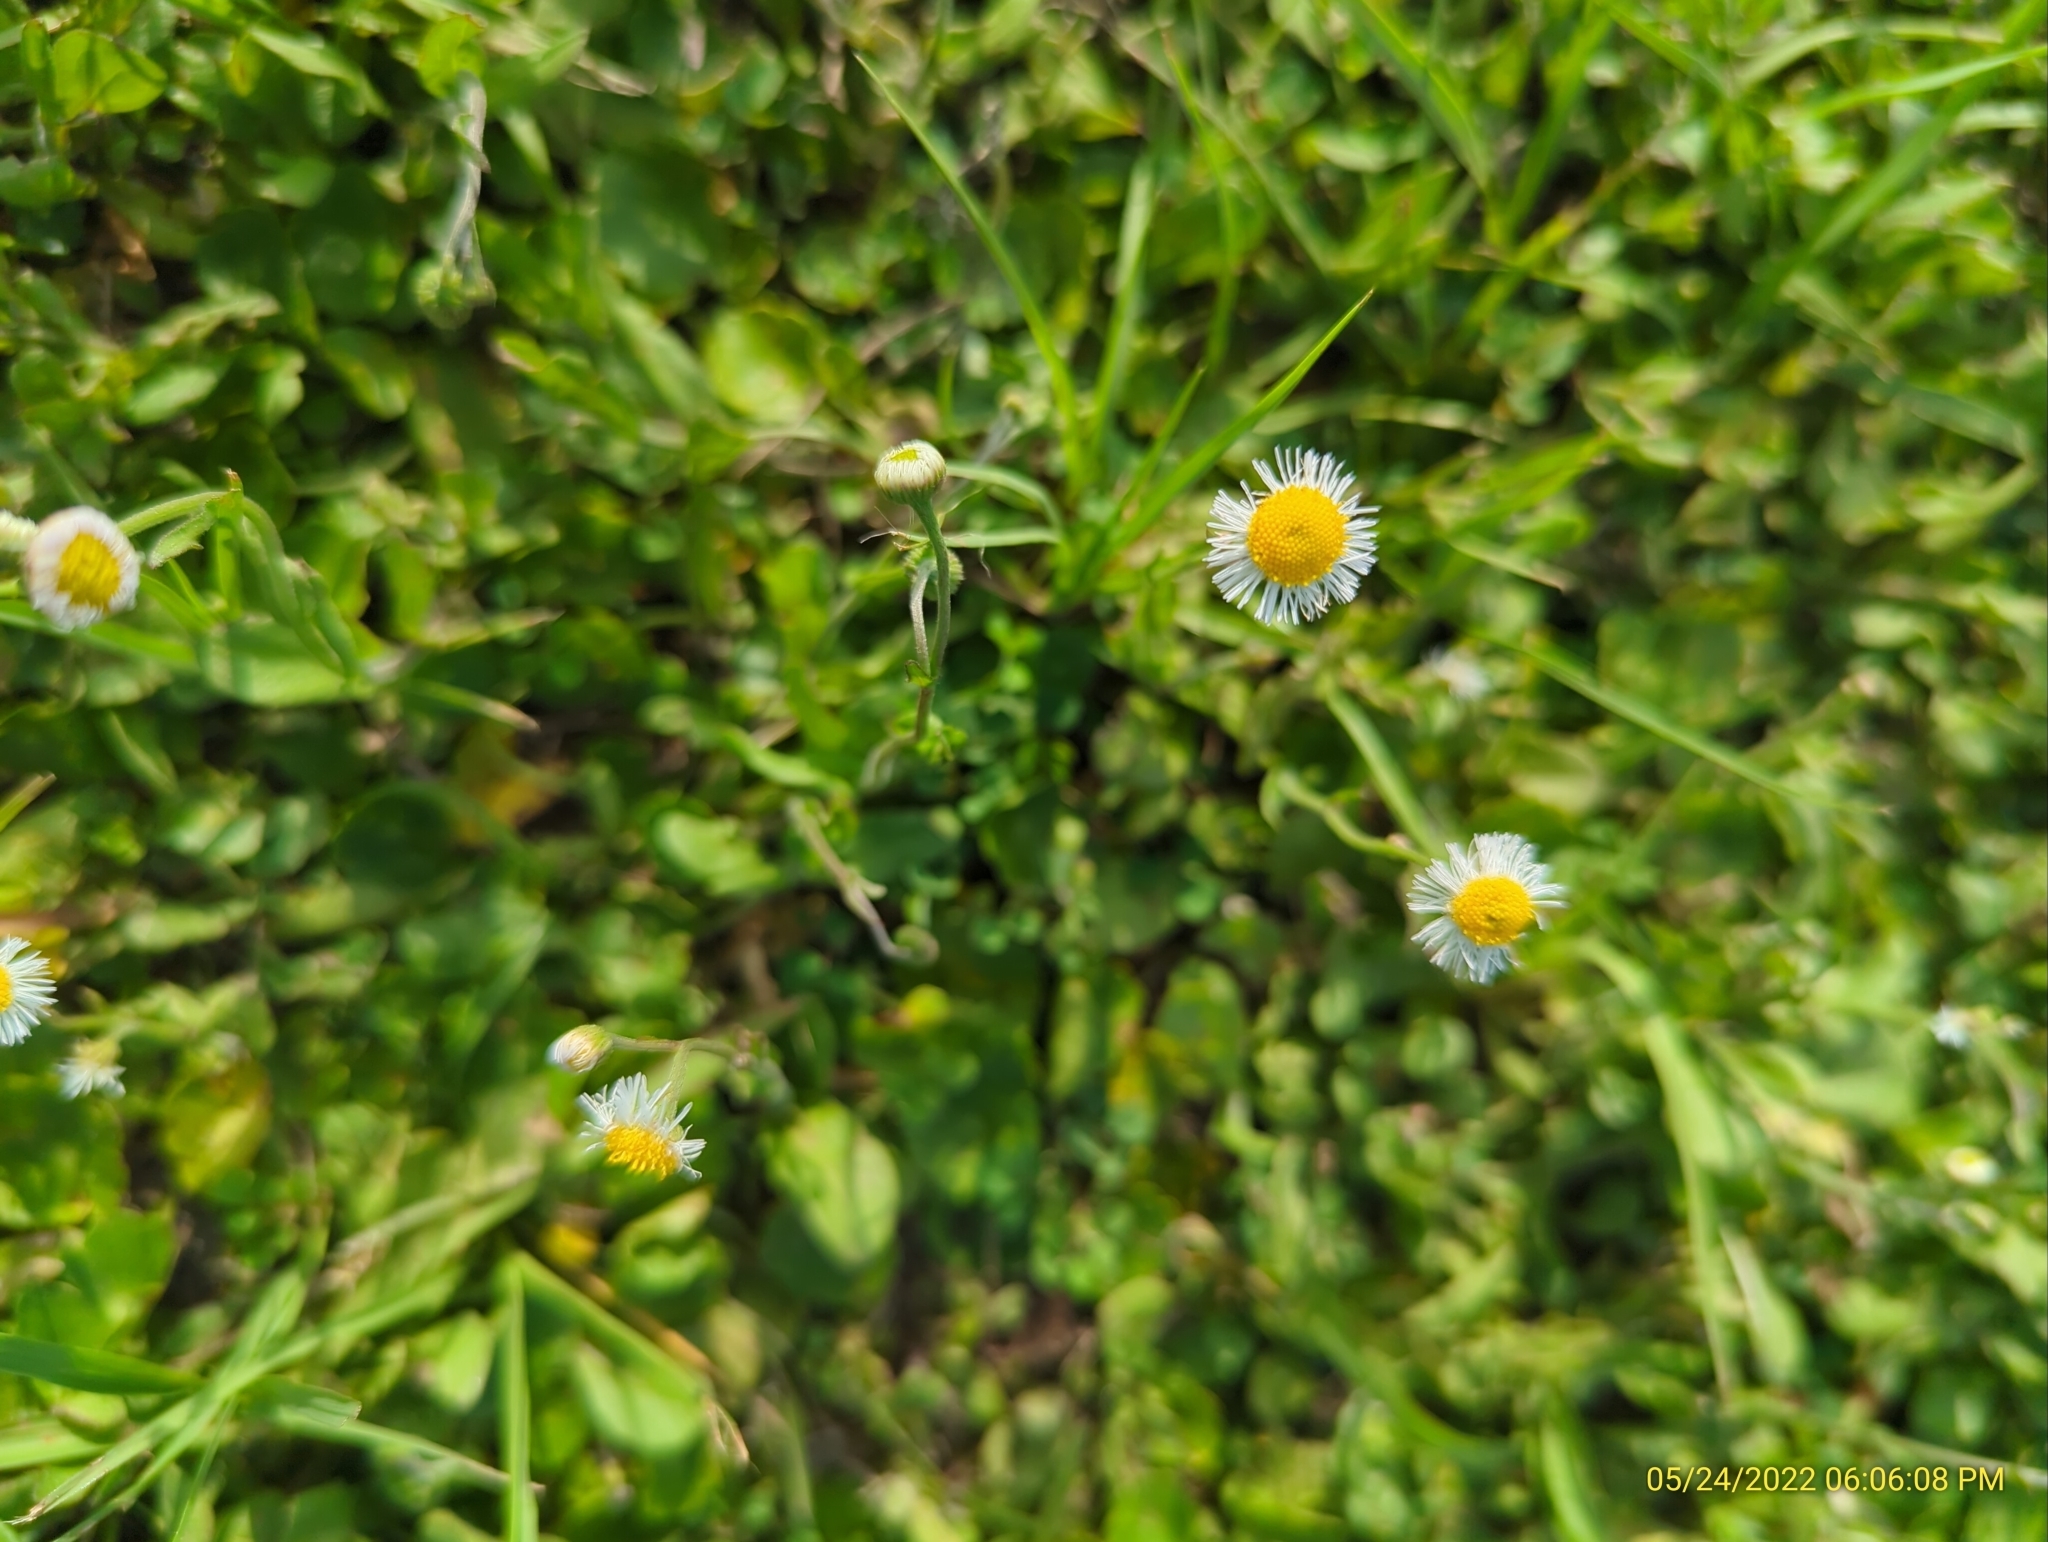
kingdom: Plantae
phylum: Tracheophyta
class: Magnoliopsida
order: Asterales
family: Asteraceae
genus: Erigeron
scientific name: Erigeron quercifolius
